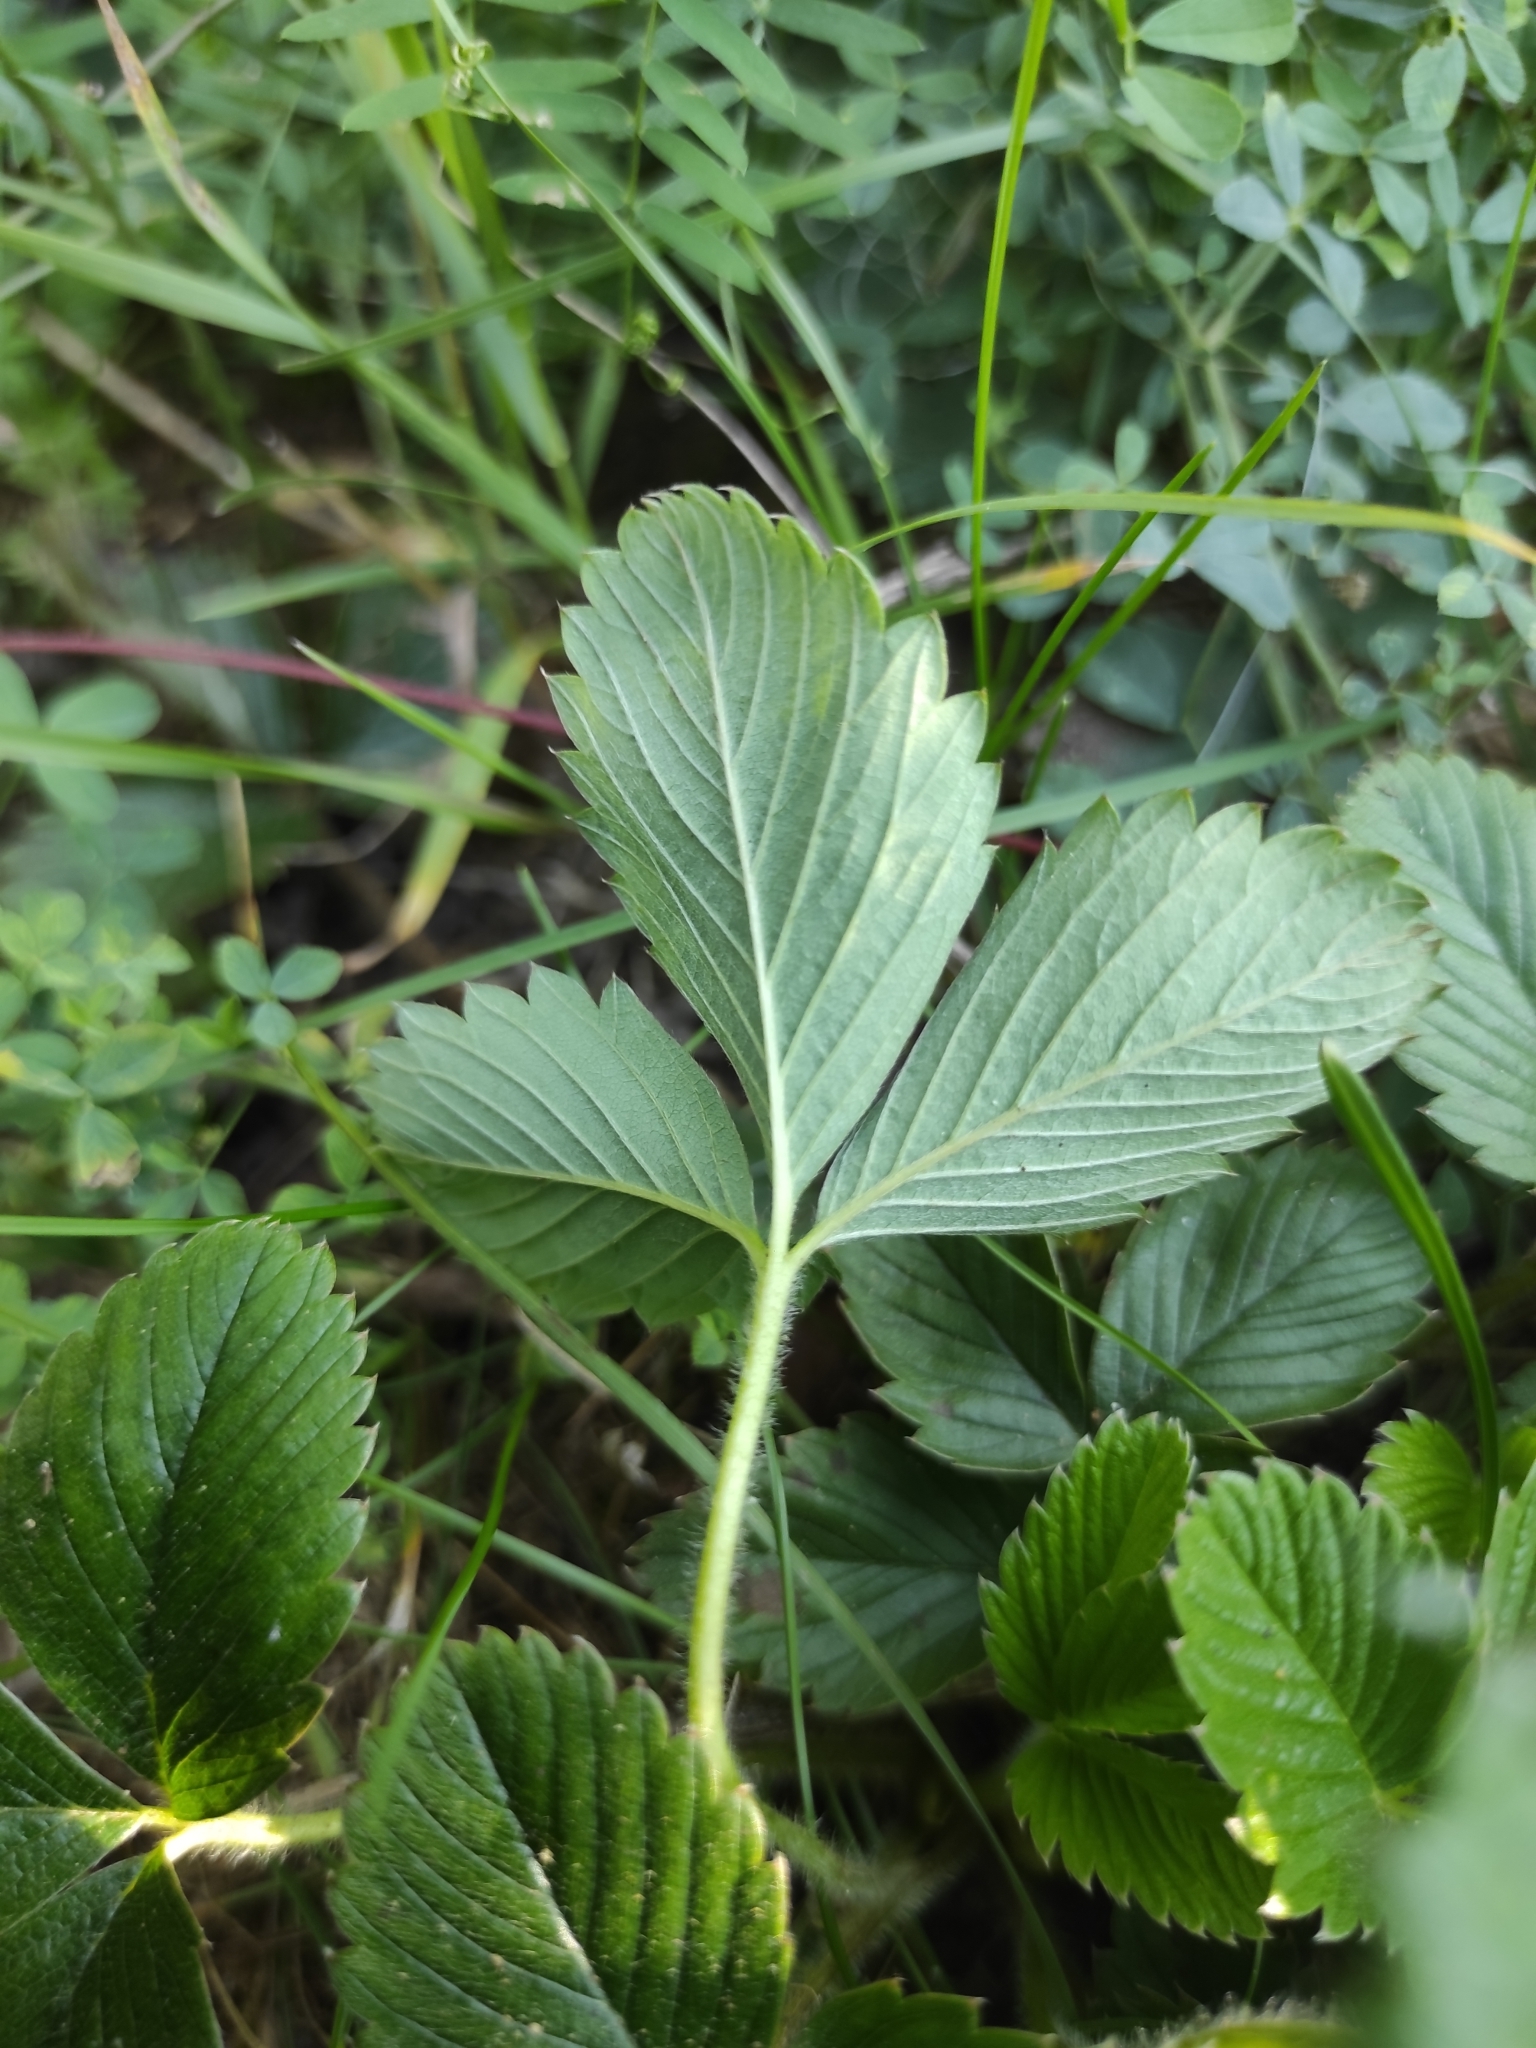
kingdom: Plantae
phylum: Tracheophyta
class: Magnoliopsida
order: Rosales
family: Rosaceae
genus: Fragaria
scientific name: Fragaria ananassa
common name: Garden strawberry
